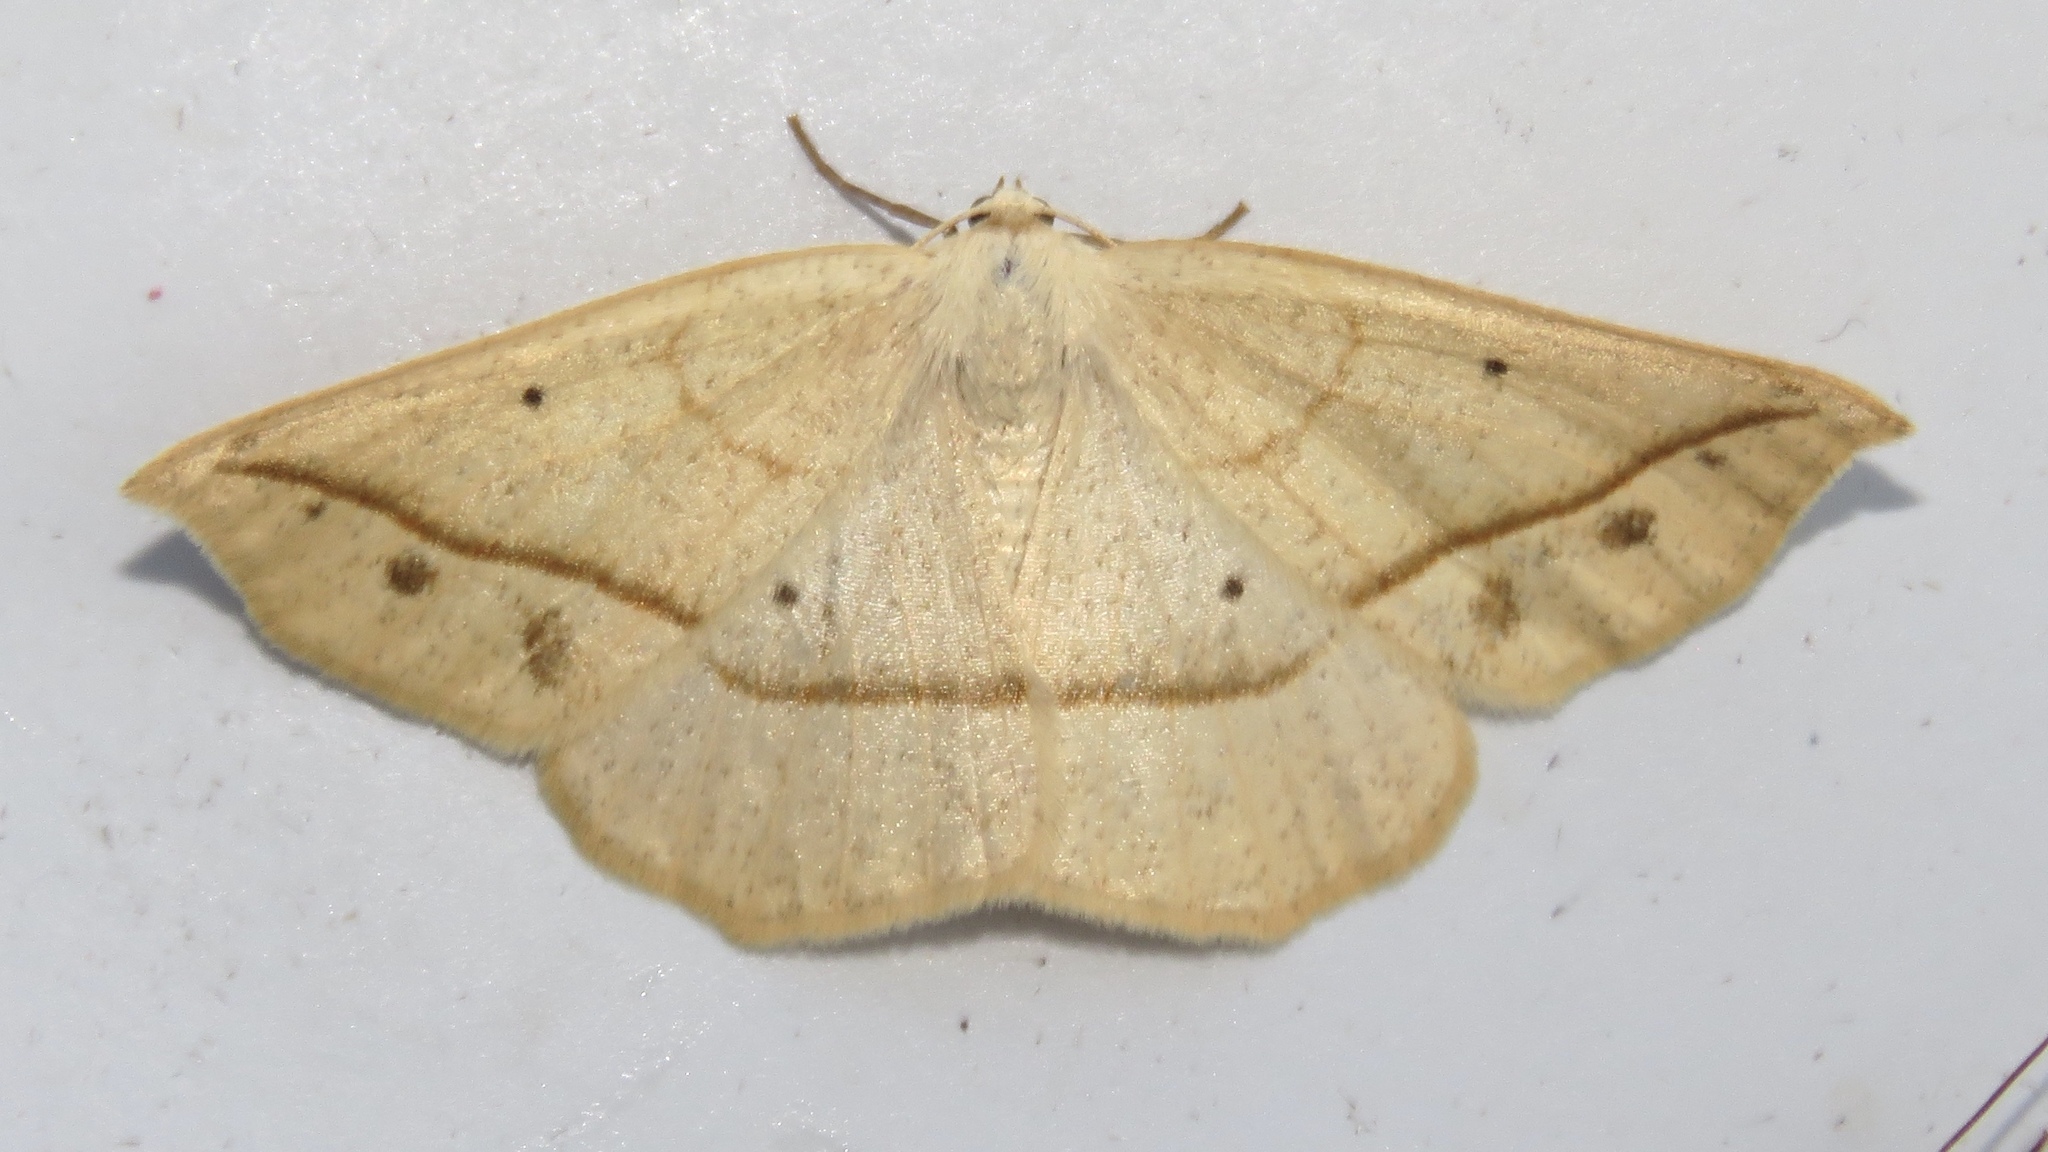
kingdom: Animalia
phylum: Arthropoda
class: Insecta
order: Lepidoptera
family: Geometridae
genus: Eusarca
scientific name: Eusarca confusaria
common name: Confused eusarca
